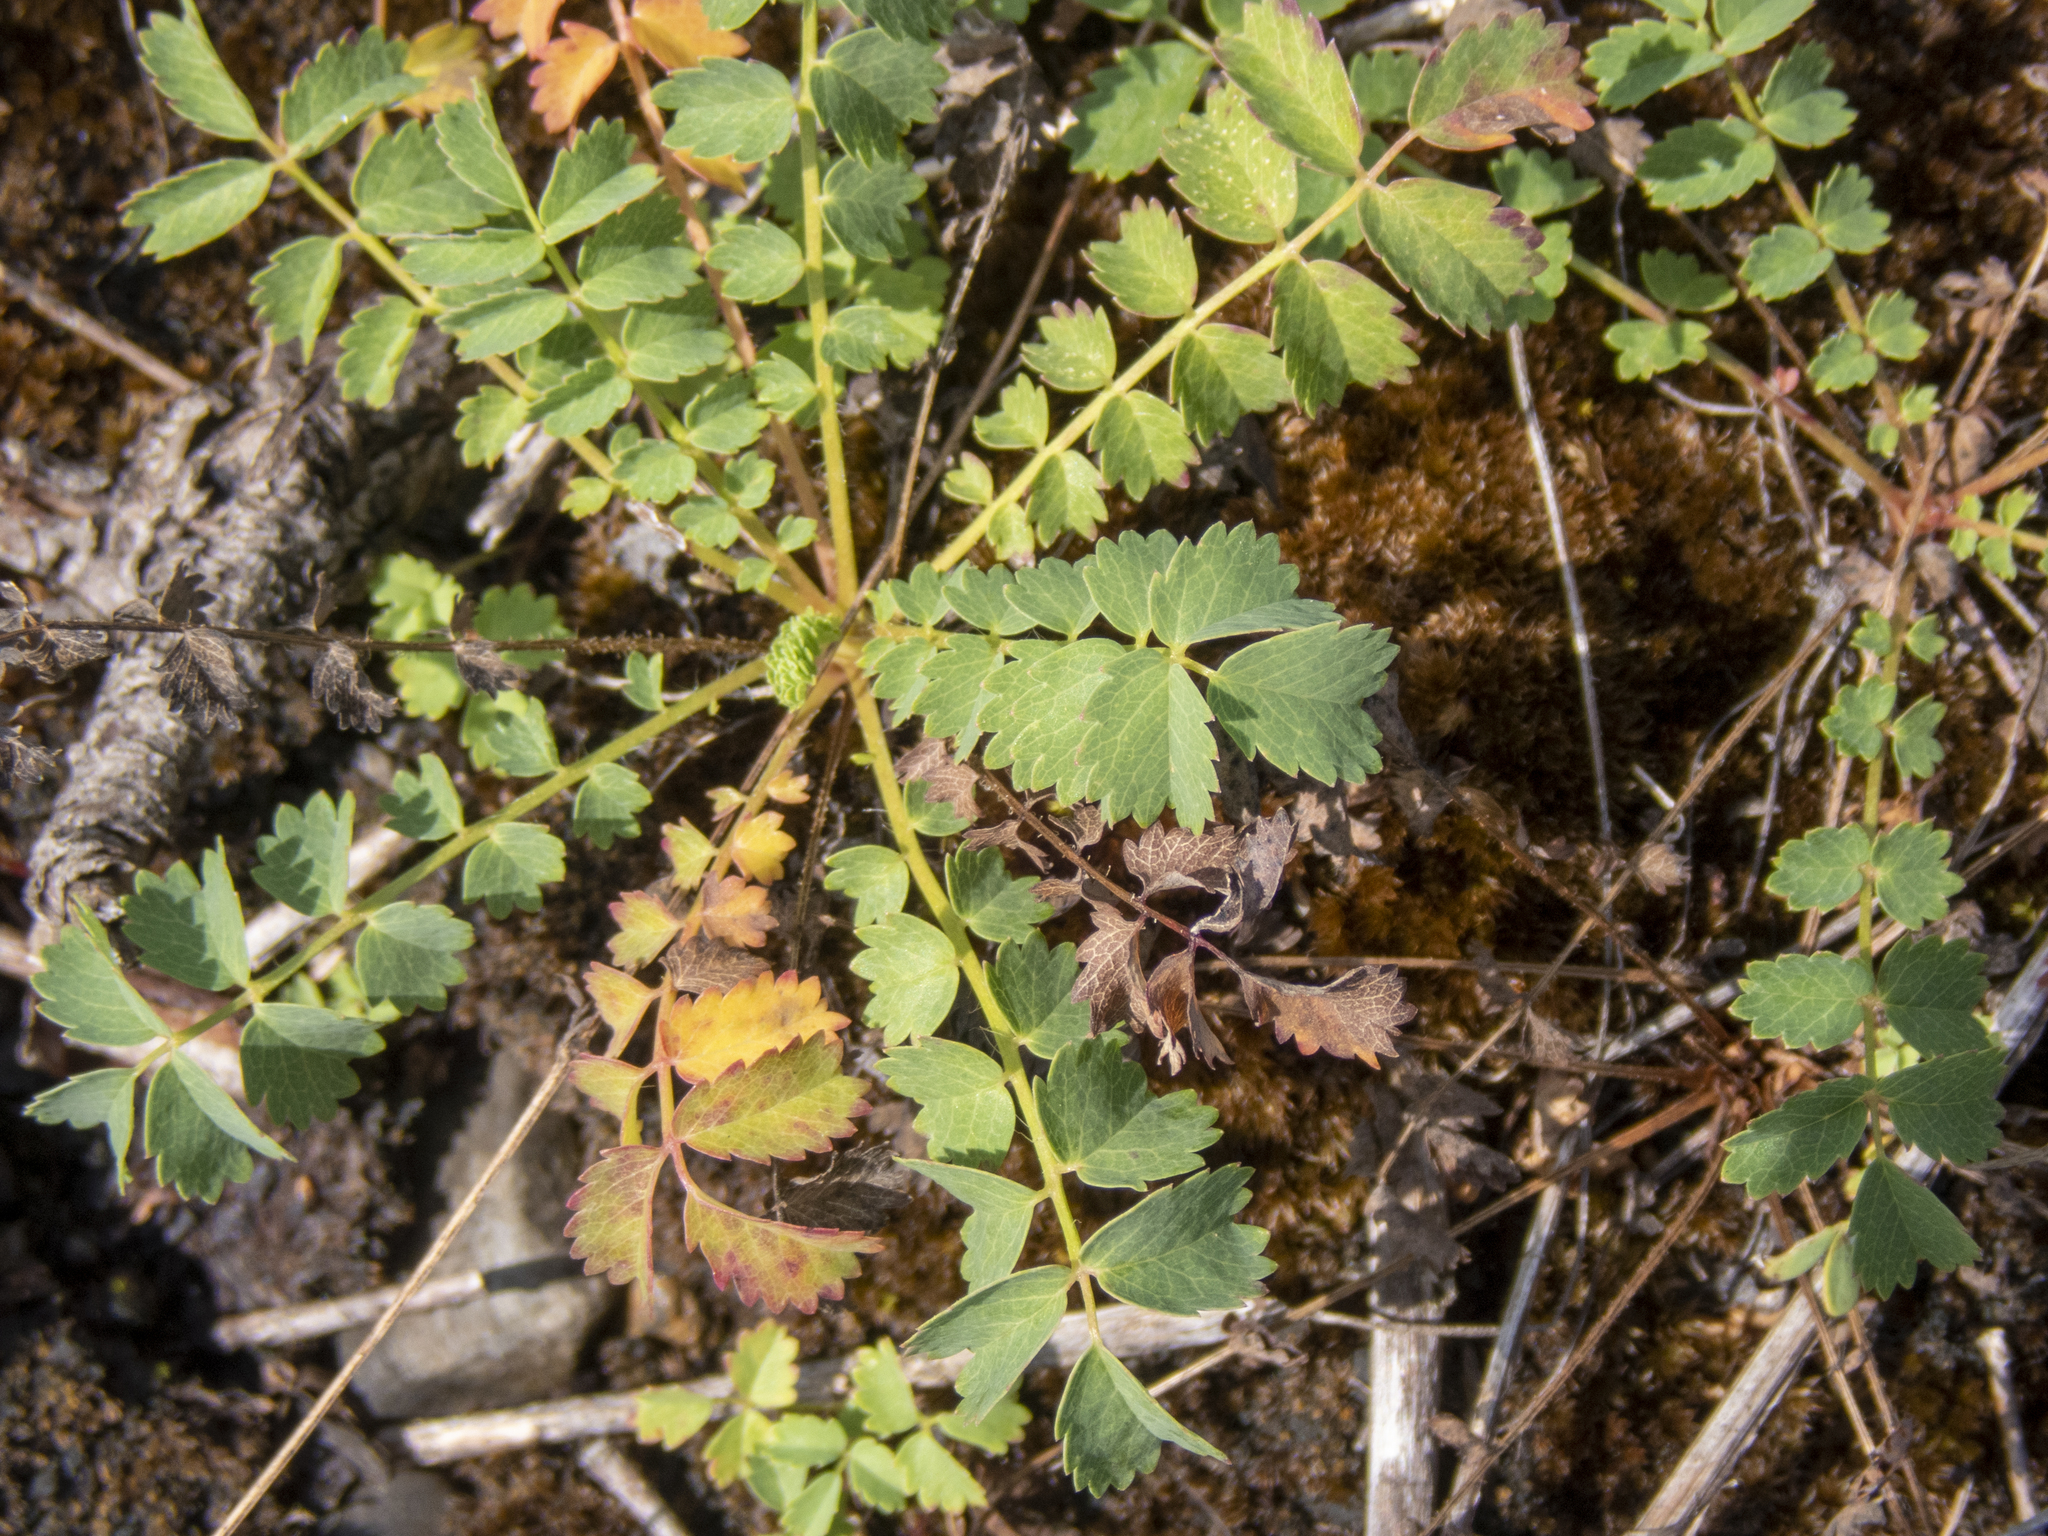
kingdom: Plantae
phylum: Tracheophyta
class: Magnoliopsida
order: Rosales
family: Rosaceae
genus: Poterium
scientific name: Poterium sanguisorba
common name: Salad burnet
